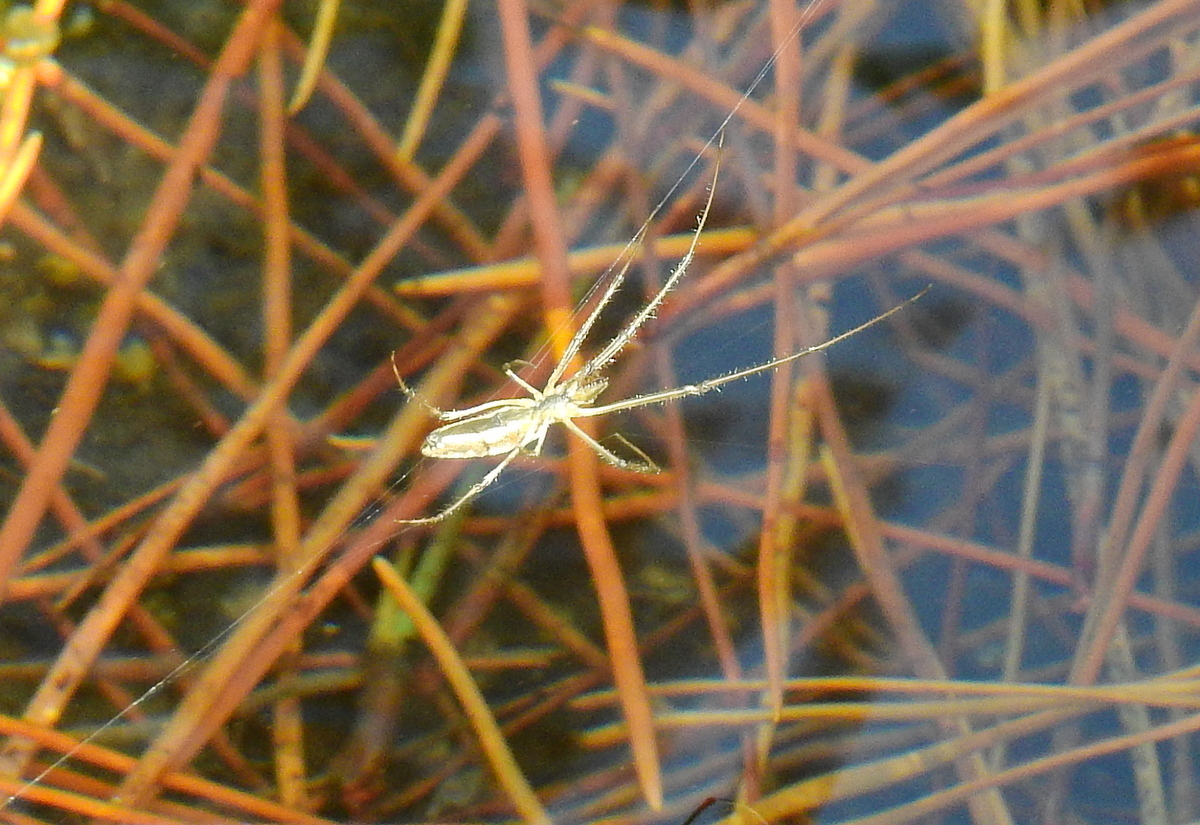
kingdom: Animalia
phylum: Arthropoda
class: Arachnida
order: Araneae
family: Tetragnathidae
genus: Tetragnatha
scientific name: Tetragnatha
